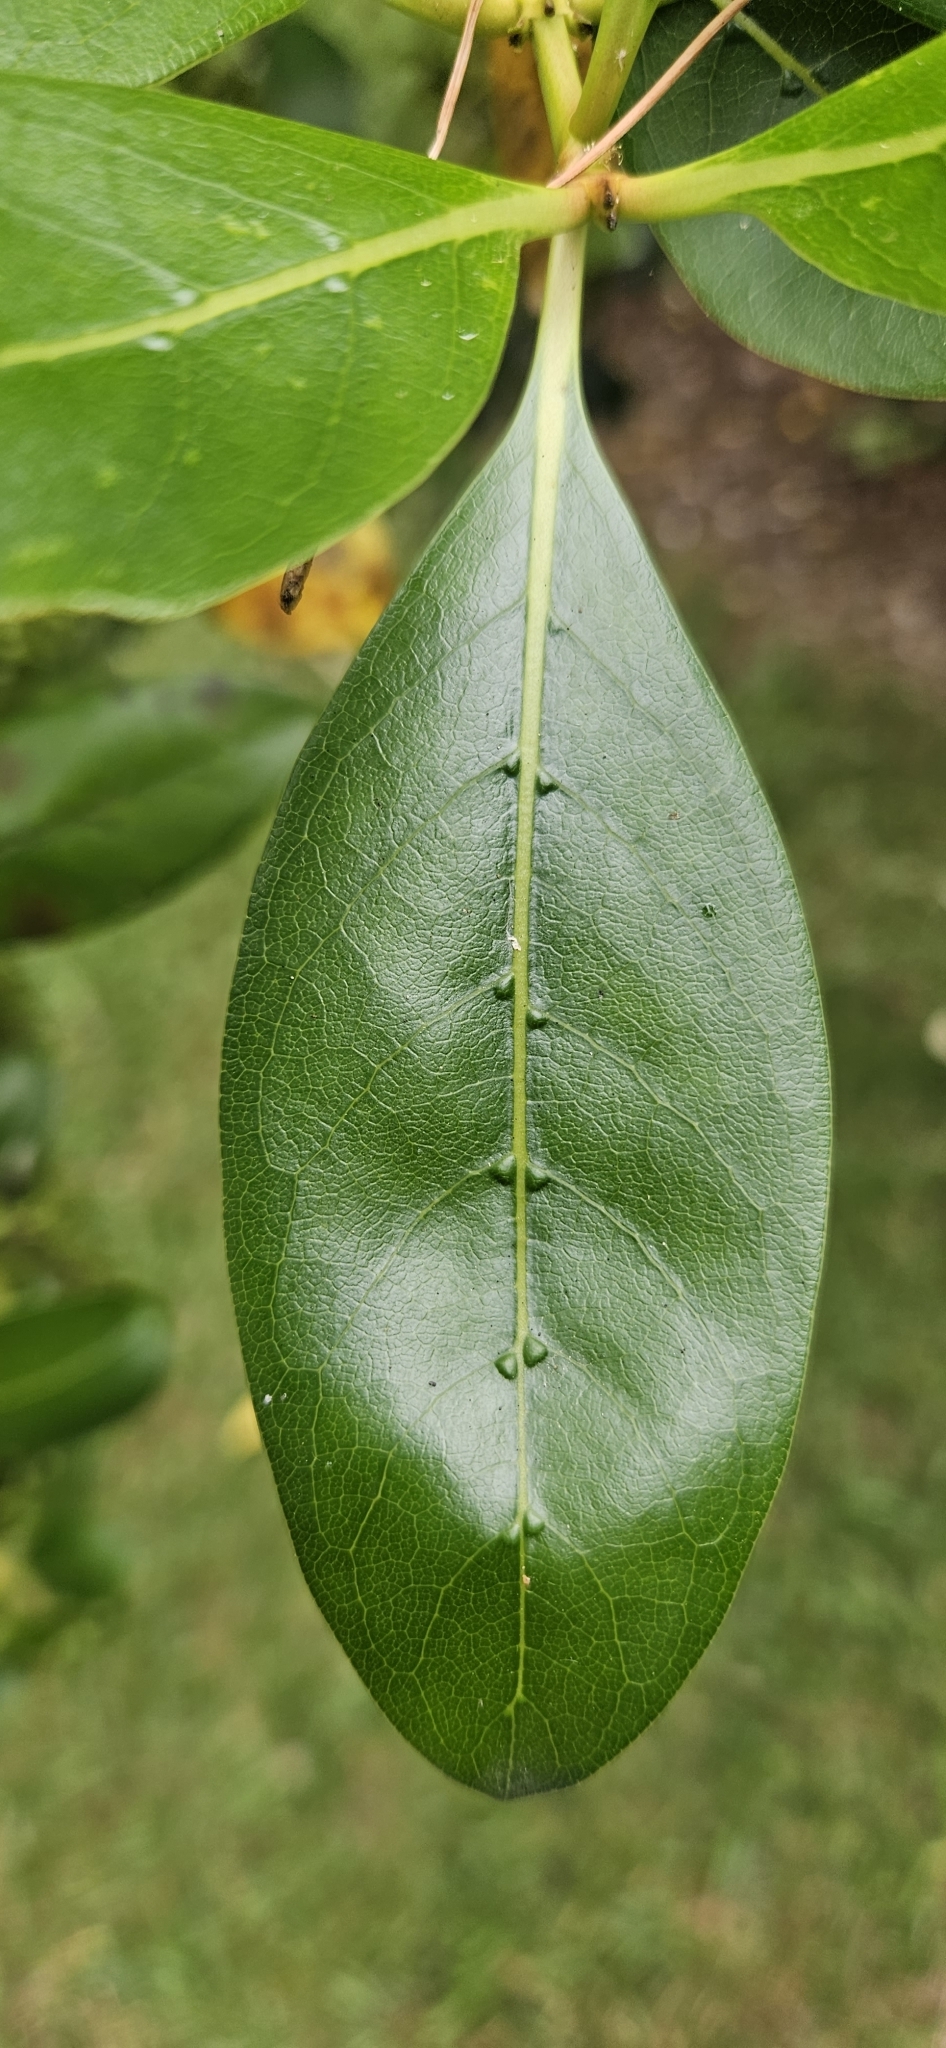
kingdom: Plantae
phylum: Tracheophyta
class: Magnoliopsida
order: Gentianales
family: Rubiaceae
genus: Coprosma
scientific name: Coprosma robusta
